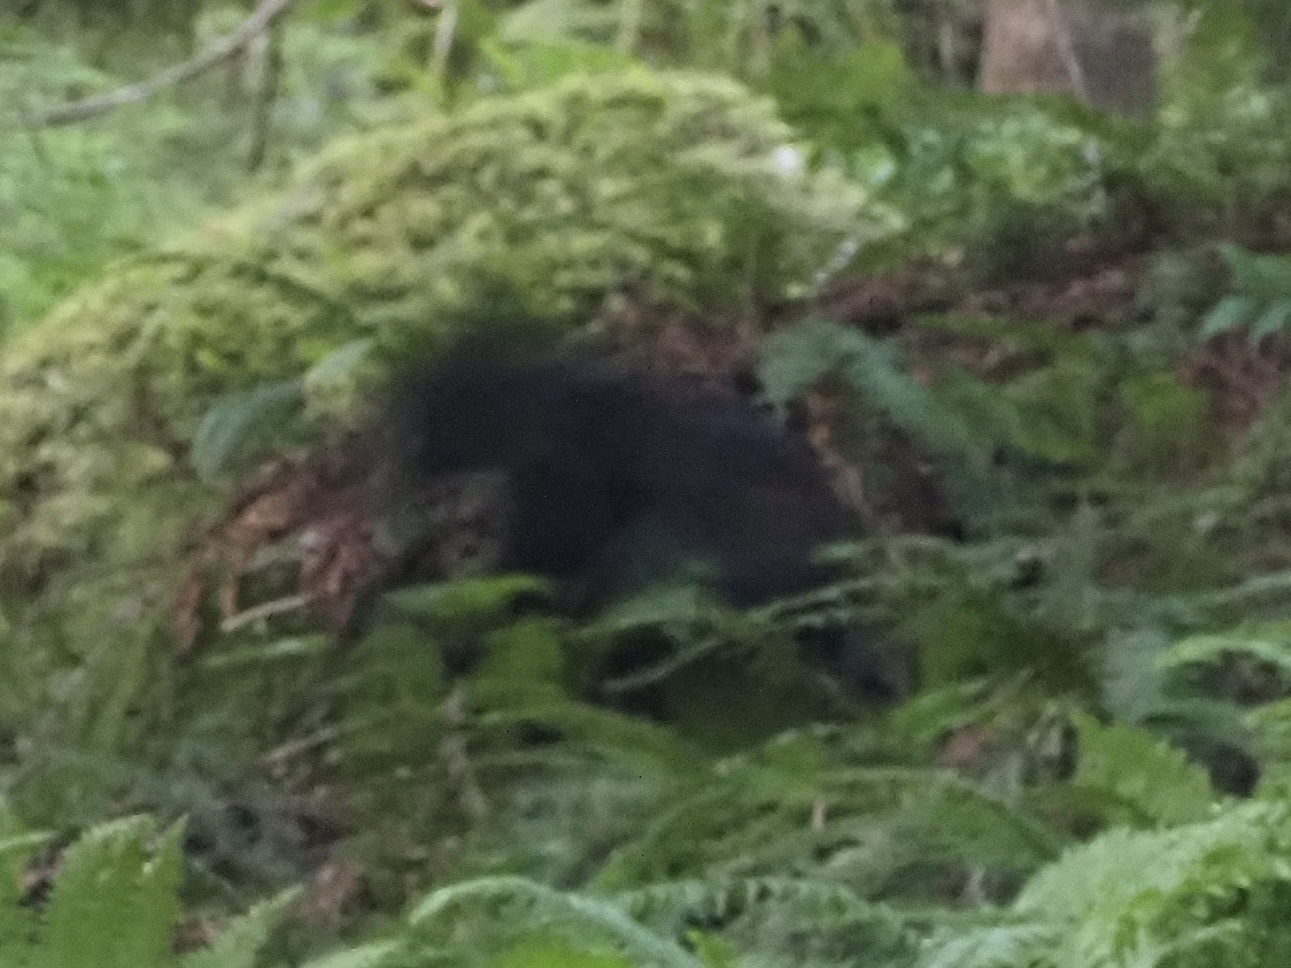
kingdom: Animalia
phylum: Chordata
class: Mammalia
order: Carnivora
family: Ursidae
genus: Ursus
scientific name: Ursus americanus
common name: American black bear
